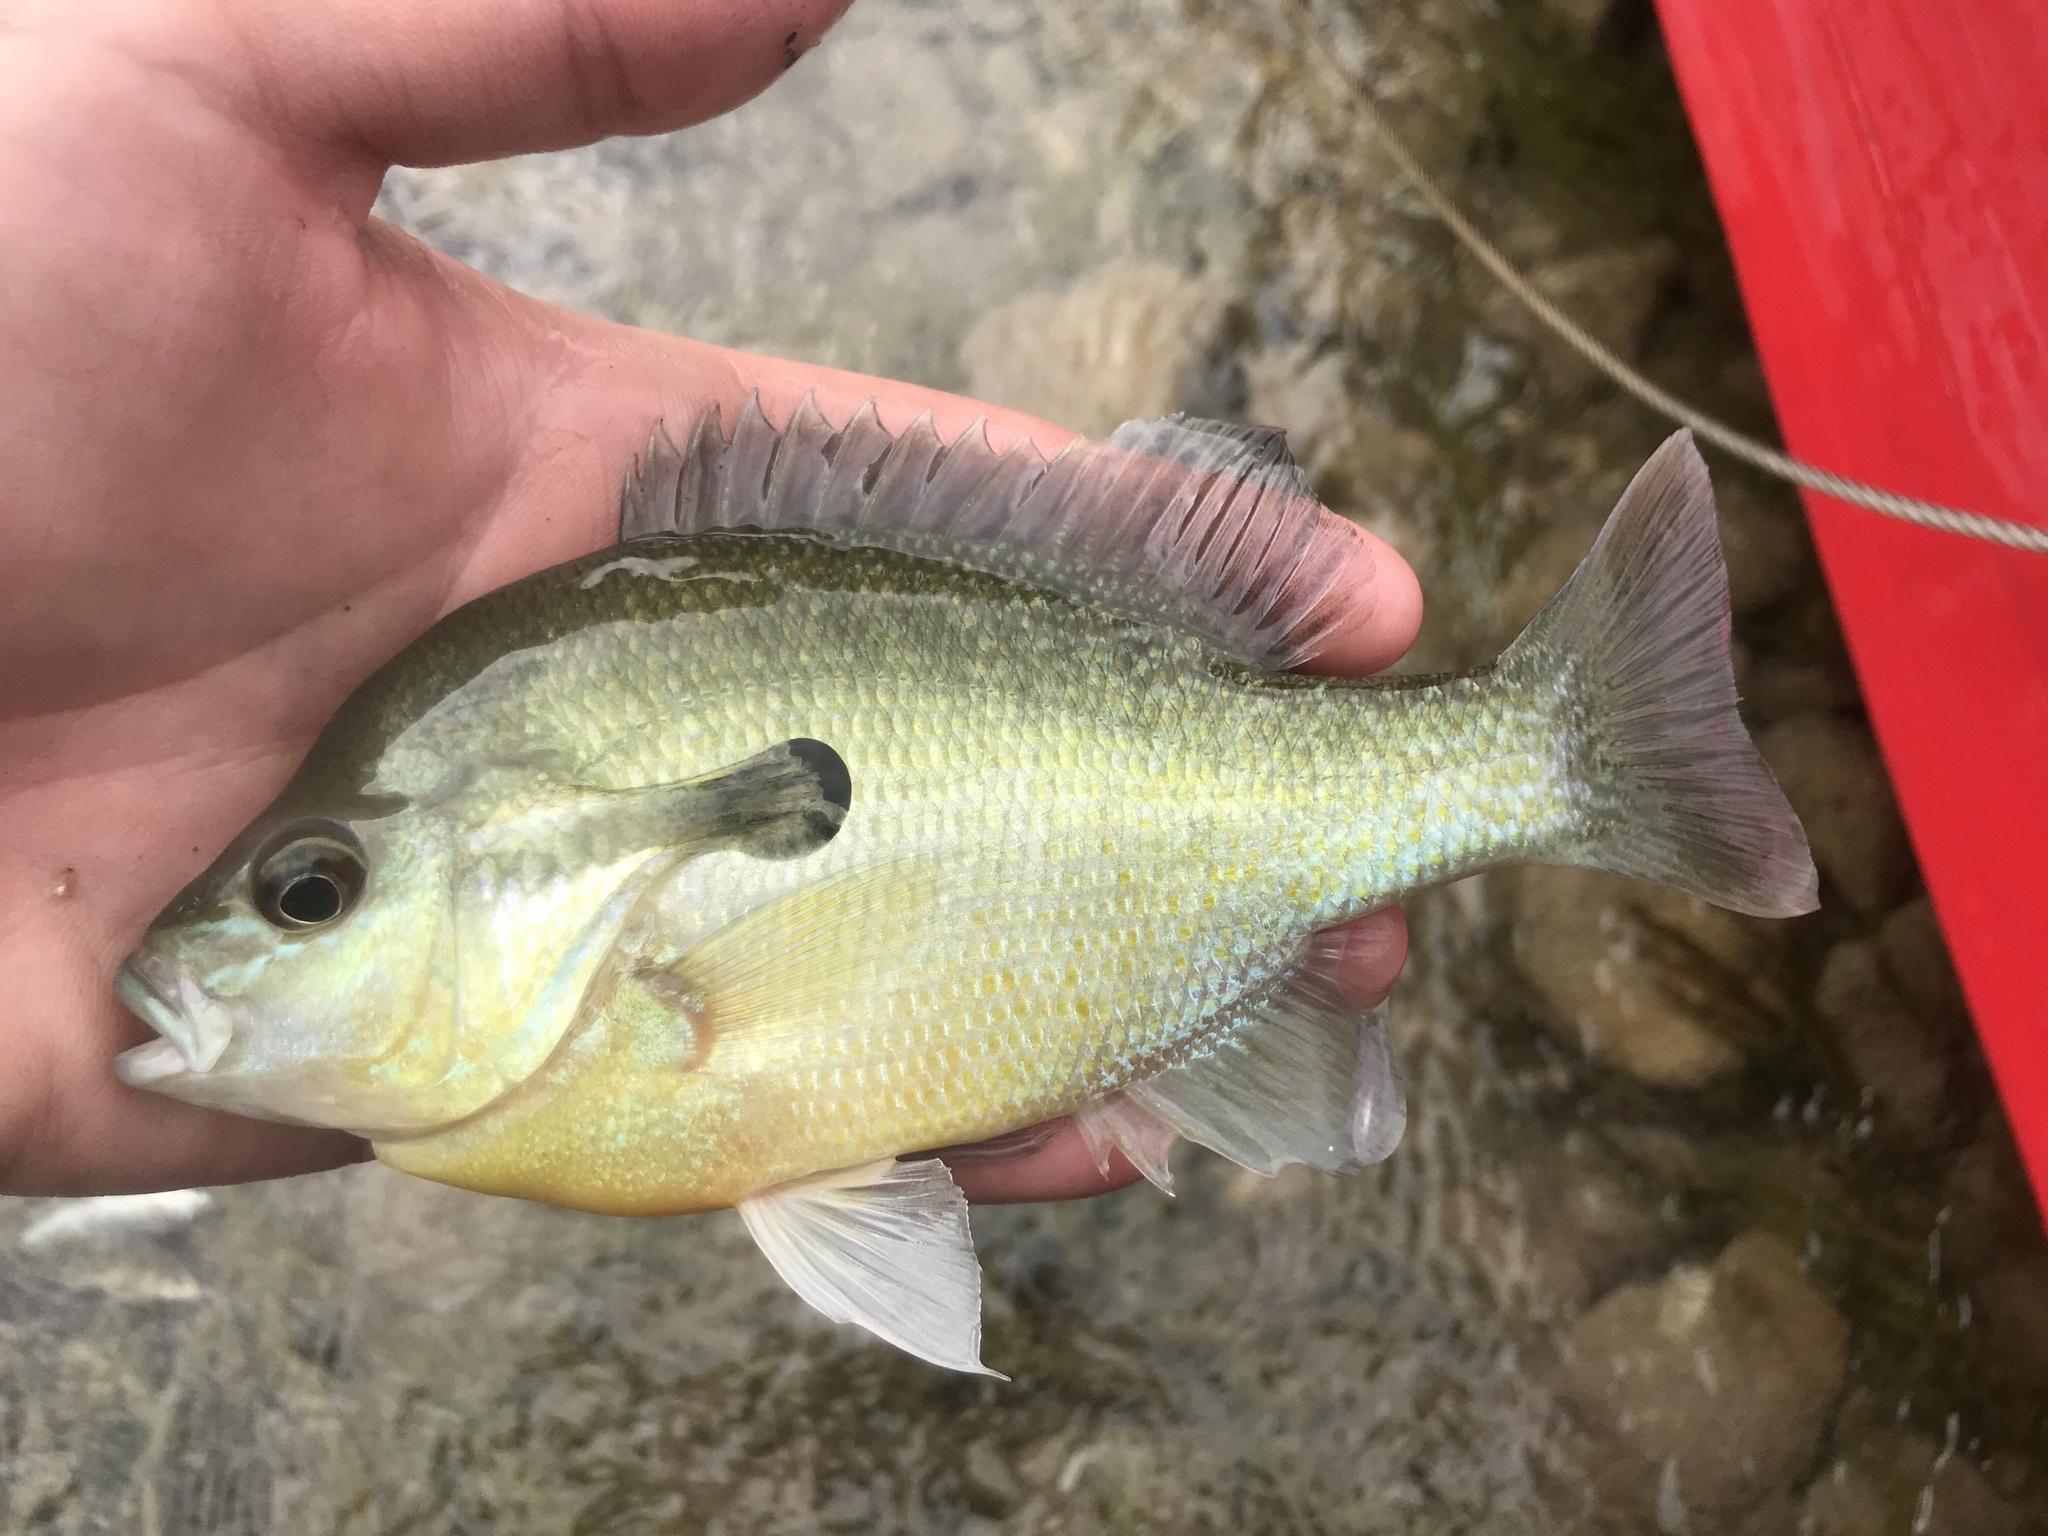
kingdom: Animalia
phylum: Chordata
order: Perciformes
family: Centrarchidae
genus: Lepomis
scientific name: Lepomis auritus
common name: Redbreast sunfish
